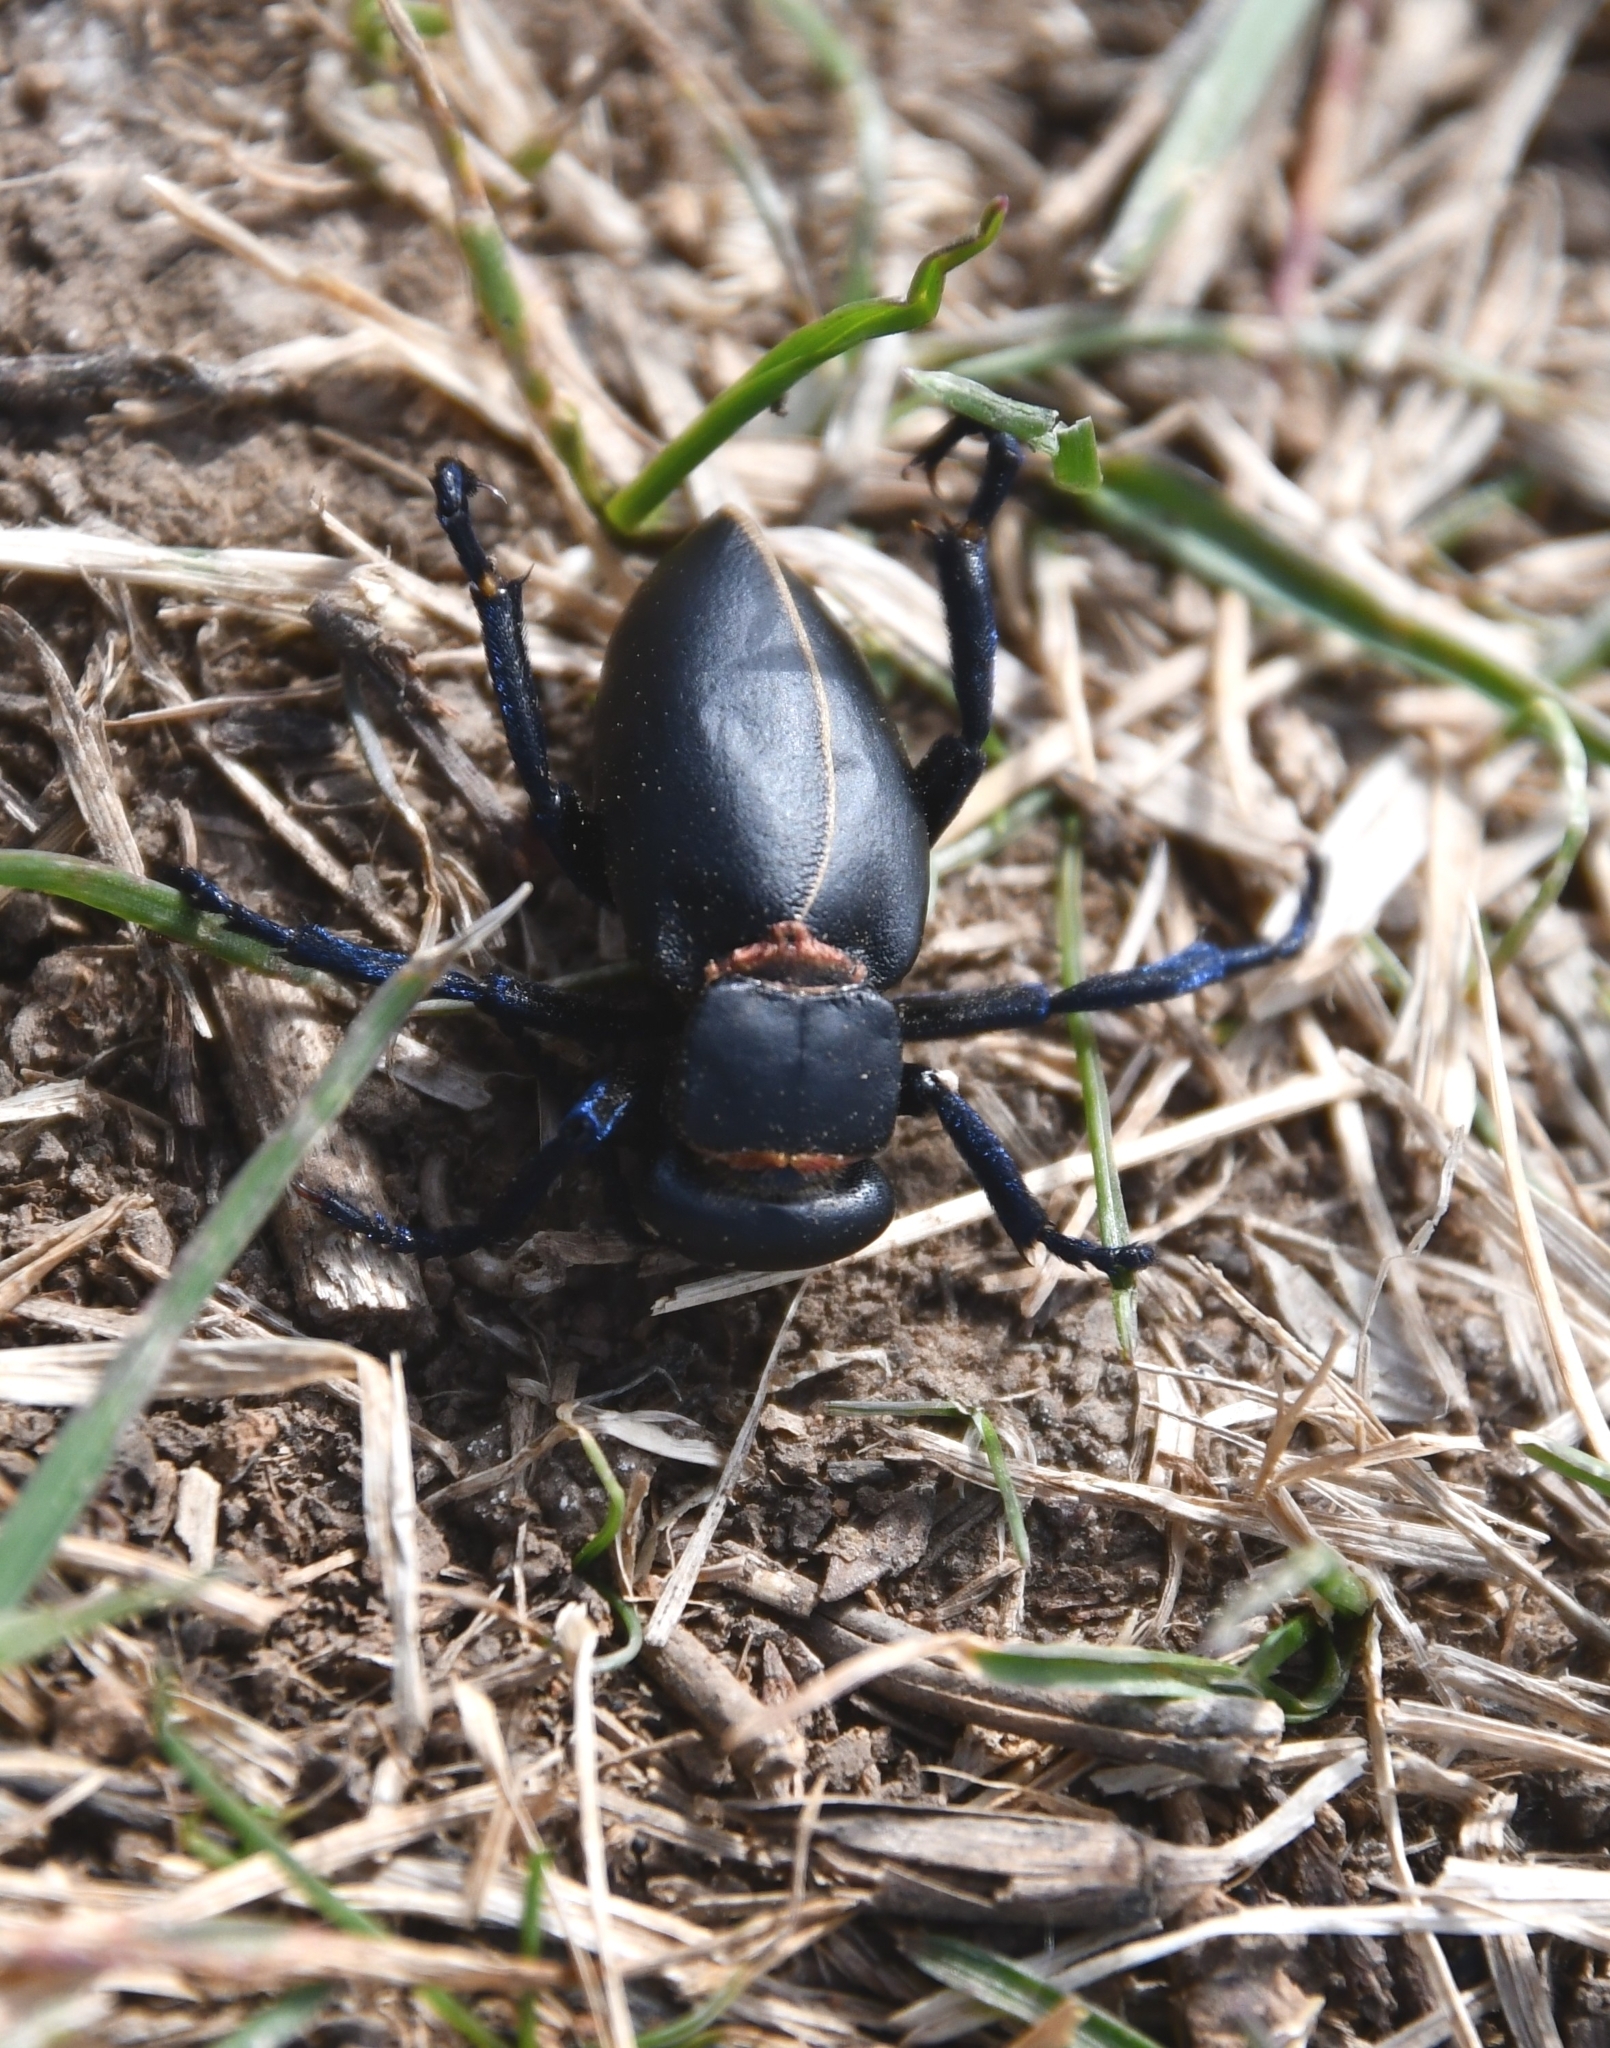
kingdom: Animalia
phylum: Arthropoda
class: Insecta
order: Coleoptera
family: Meloidae
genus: Meloe
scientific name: Meloe hungarus
